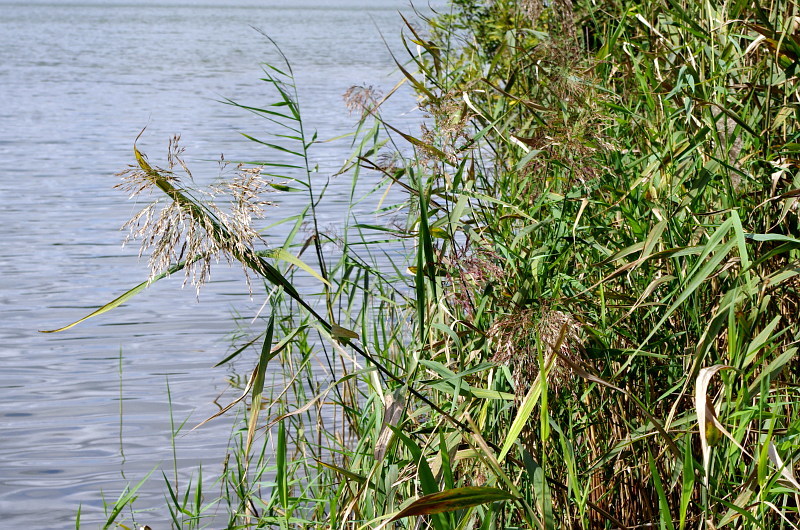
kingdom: Plantae
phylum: Tracheophyta
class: Liliopsida
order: Poales
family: Poaceae
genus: Phragmites
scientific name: Phragmites australis
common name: Common reed
